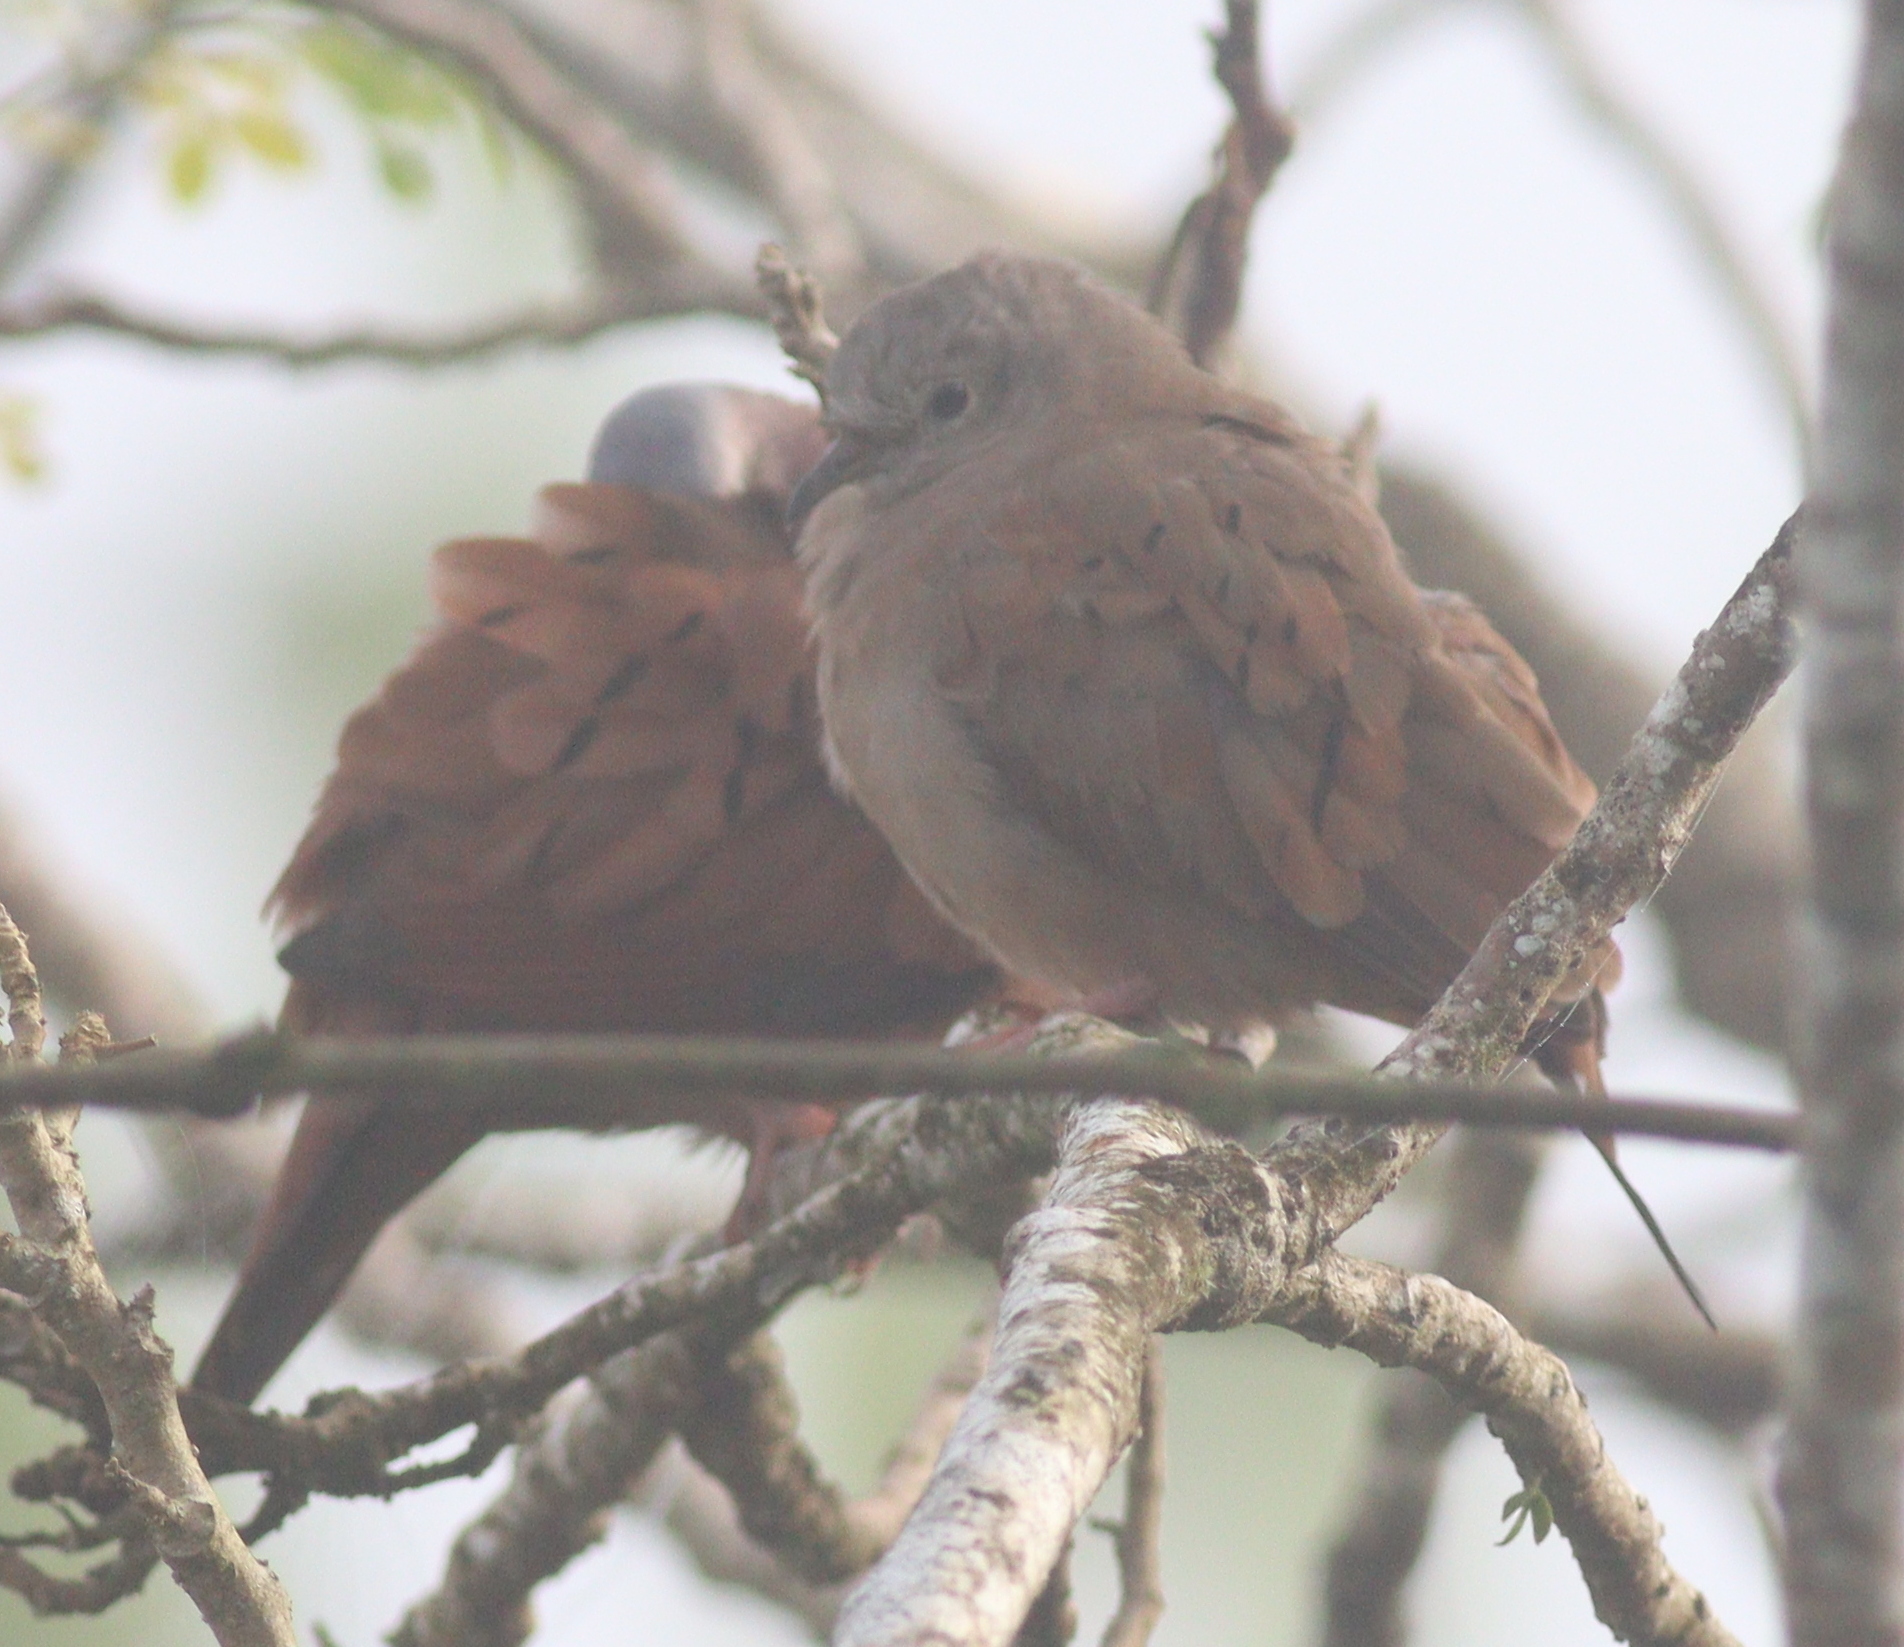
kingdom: Animalia
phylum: Chordata
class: Aves
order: Columbiformes
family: Columbidae
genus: Columbina
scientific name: Columbina talpacoti
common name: Ruddy ground dove
